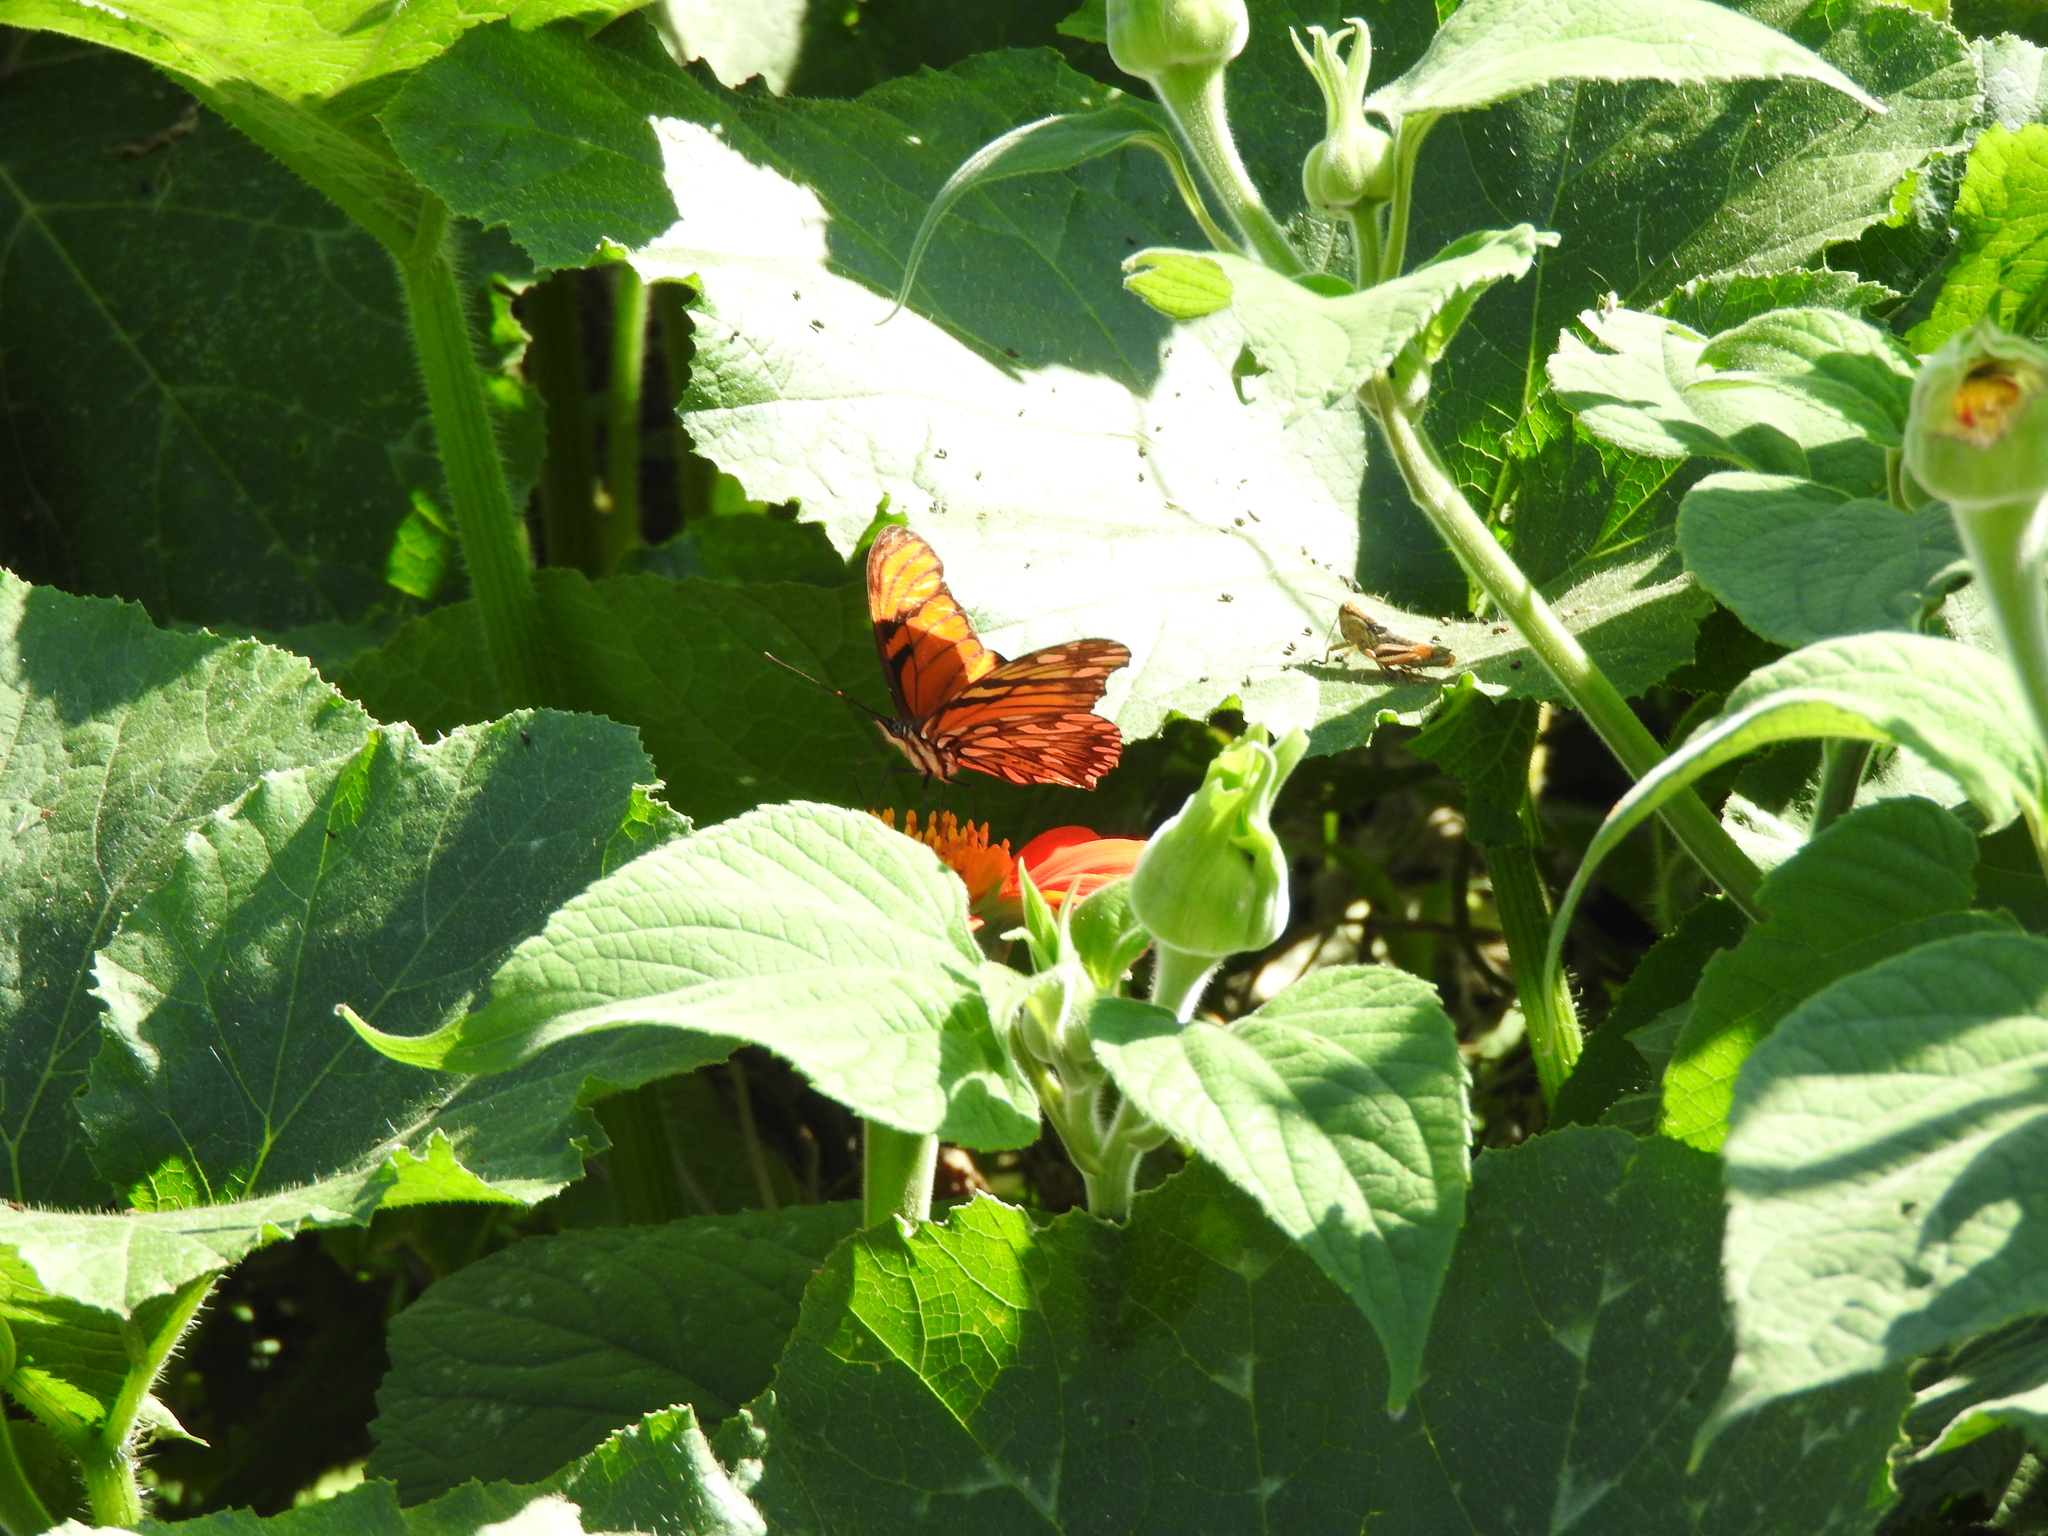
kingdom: Animalia
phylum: Arthropoda
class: Insecta
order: Lepidoptera
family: Nymphalidae
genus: Dione
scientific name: Dione juno
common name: Juno silverspot
